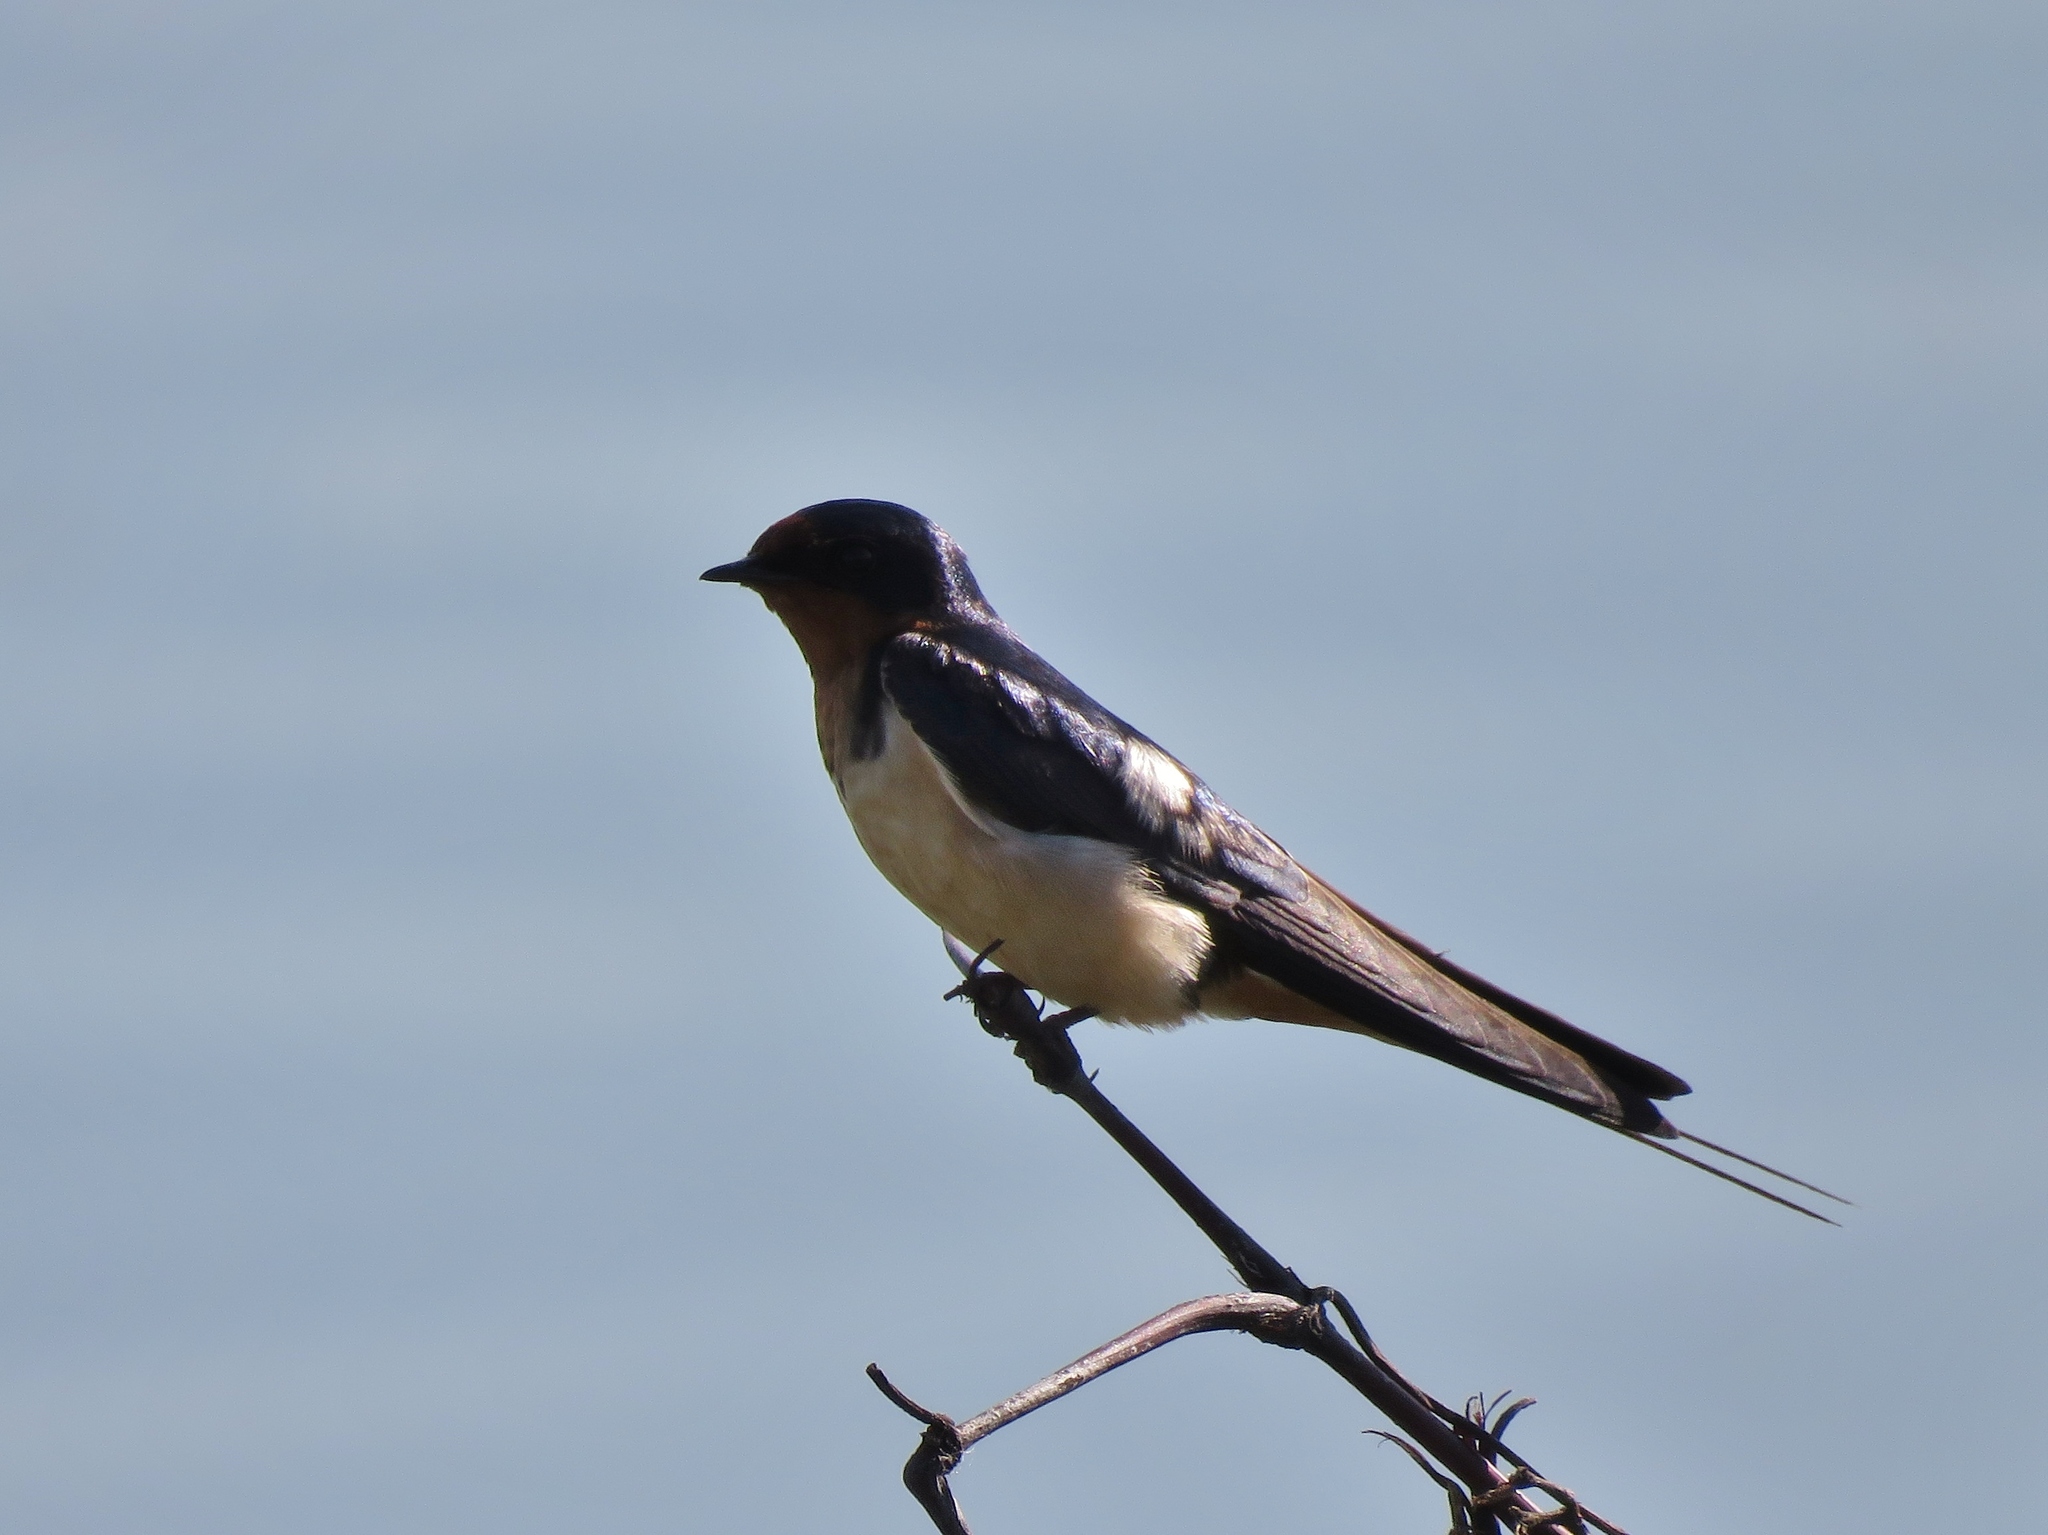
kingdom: Animalia
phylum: Chordata
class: Aves
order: Passeriformes
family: Hirundinidae
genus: Hirundo
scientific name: Hirundo rustica
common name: Barn swallow
